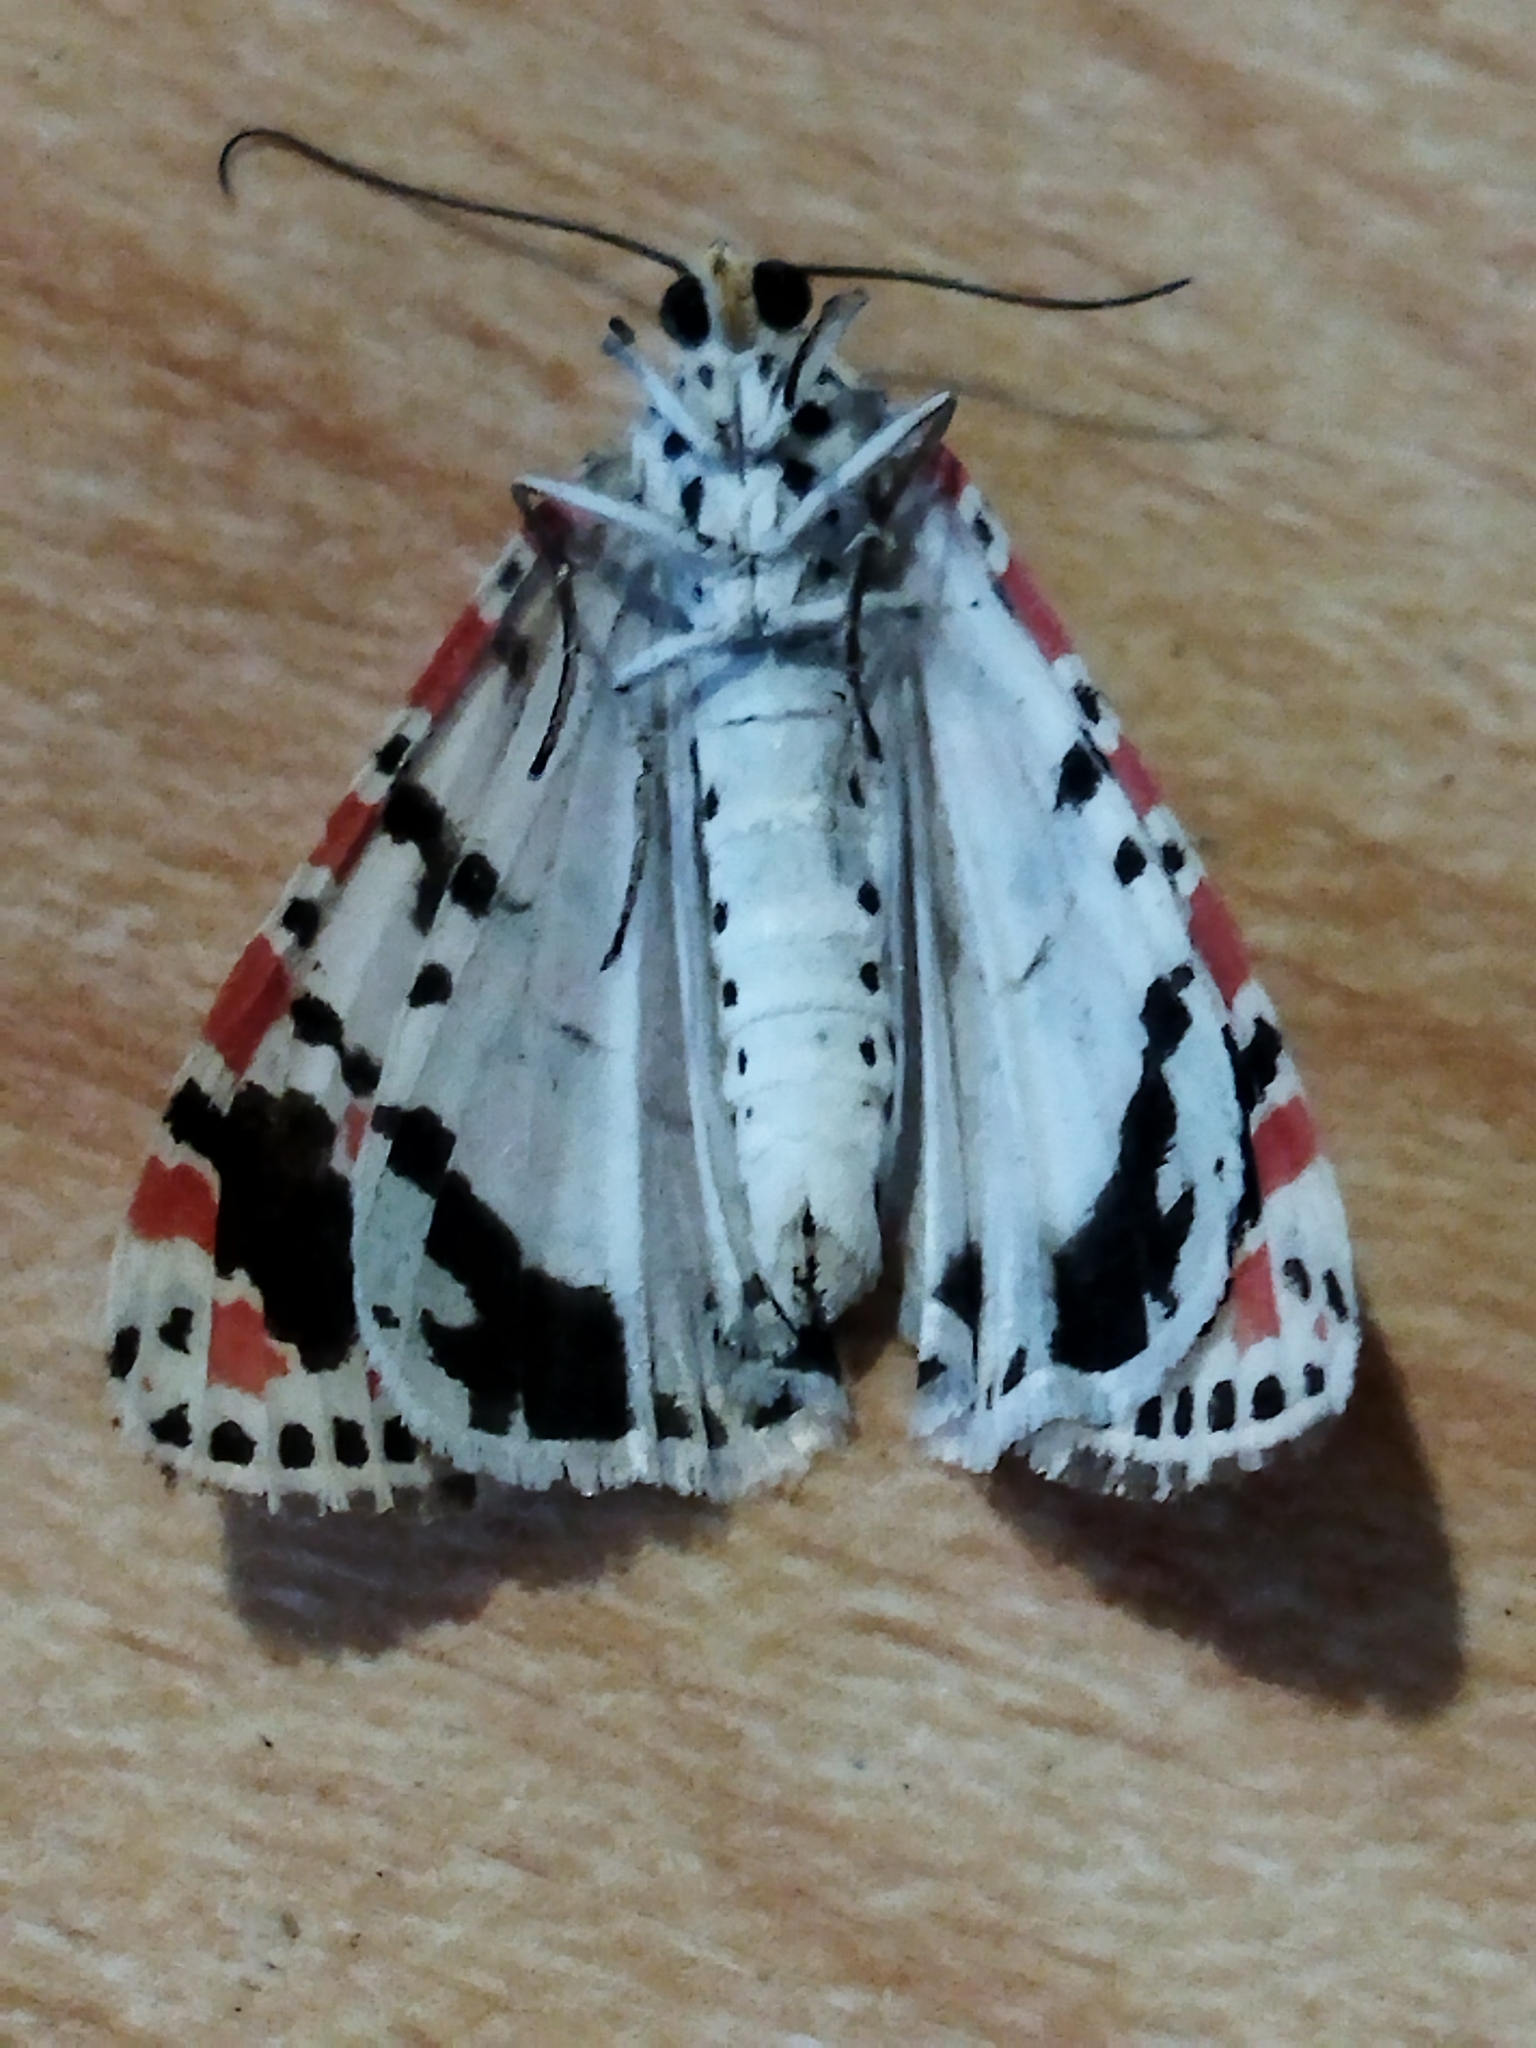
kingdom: Animalia
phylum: Arthropoda
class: Insecta
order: Lepidoptera
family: Erebidae
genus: Utetheisa
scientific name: Utetheisa pulchella
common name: Crimson speckled
